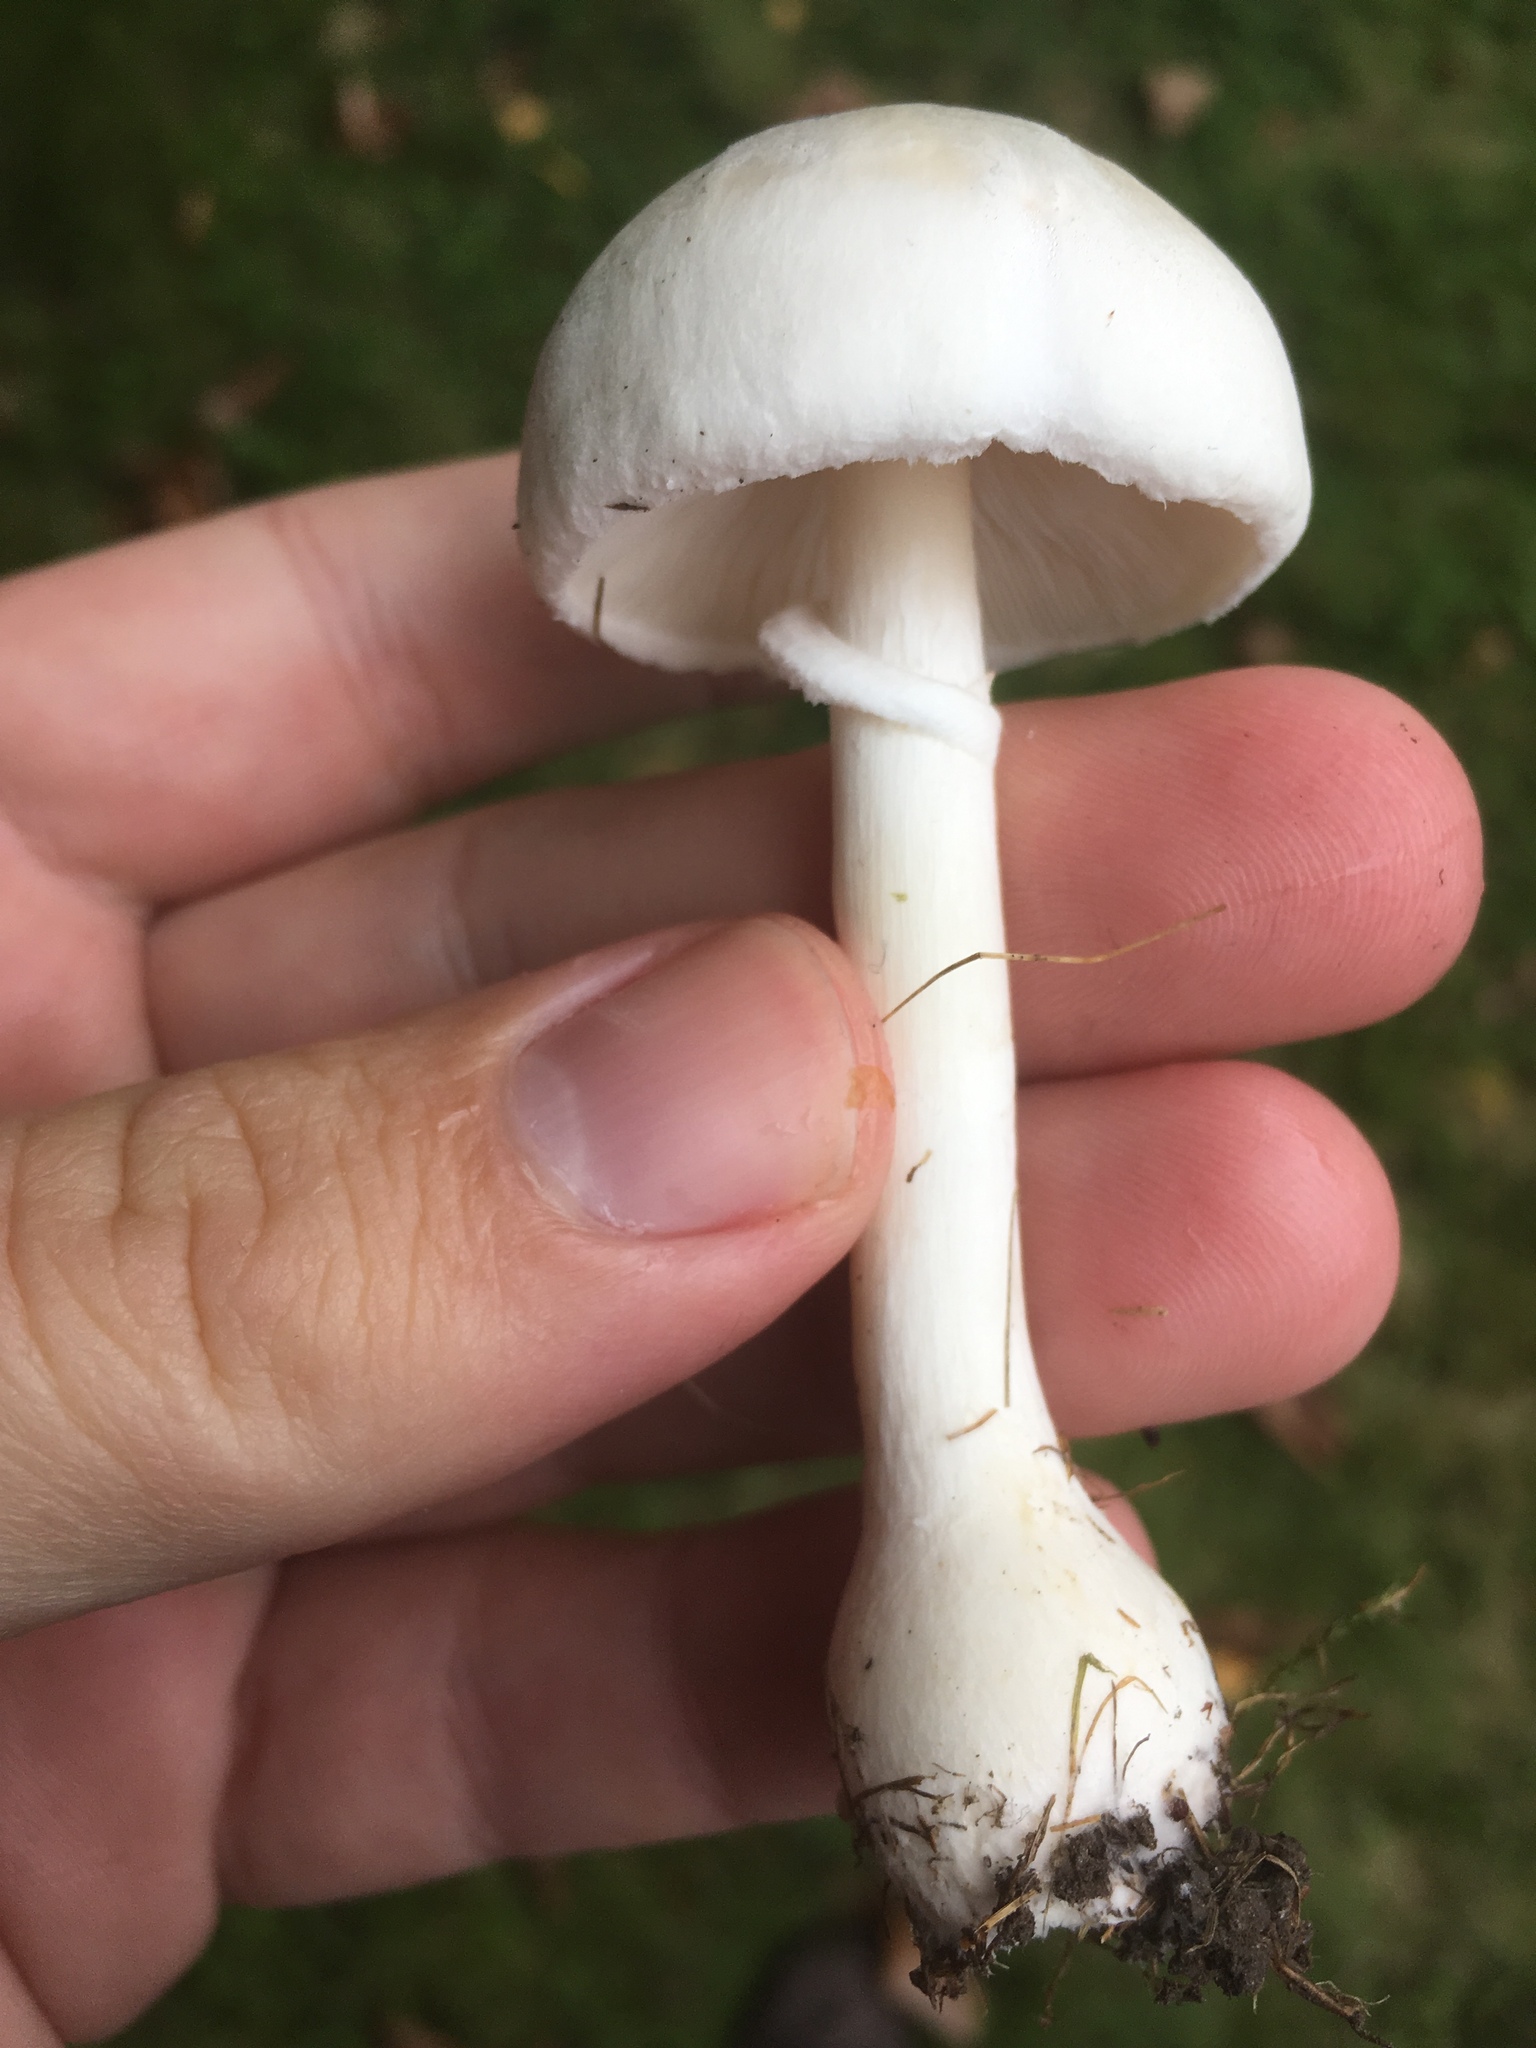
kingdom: Fungi
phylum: Basidiomycota
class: Agaricomycetes
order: Agaricales
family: Agaricaceae
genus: Leucoagaricus
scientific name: Leucoagaricus leucothites
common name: White dapperling
